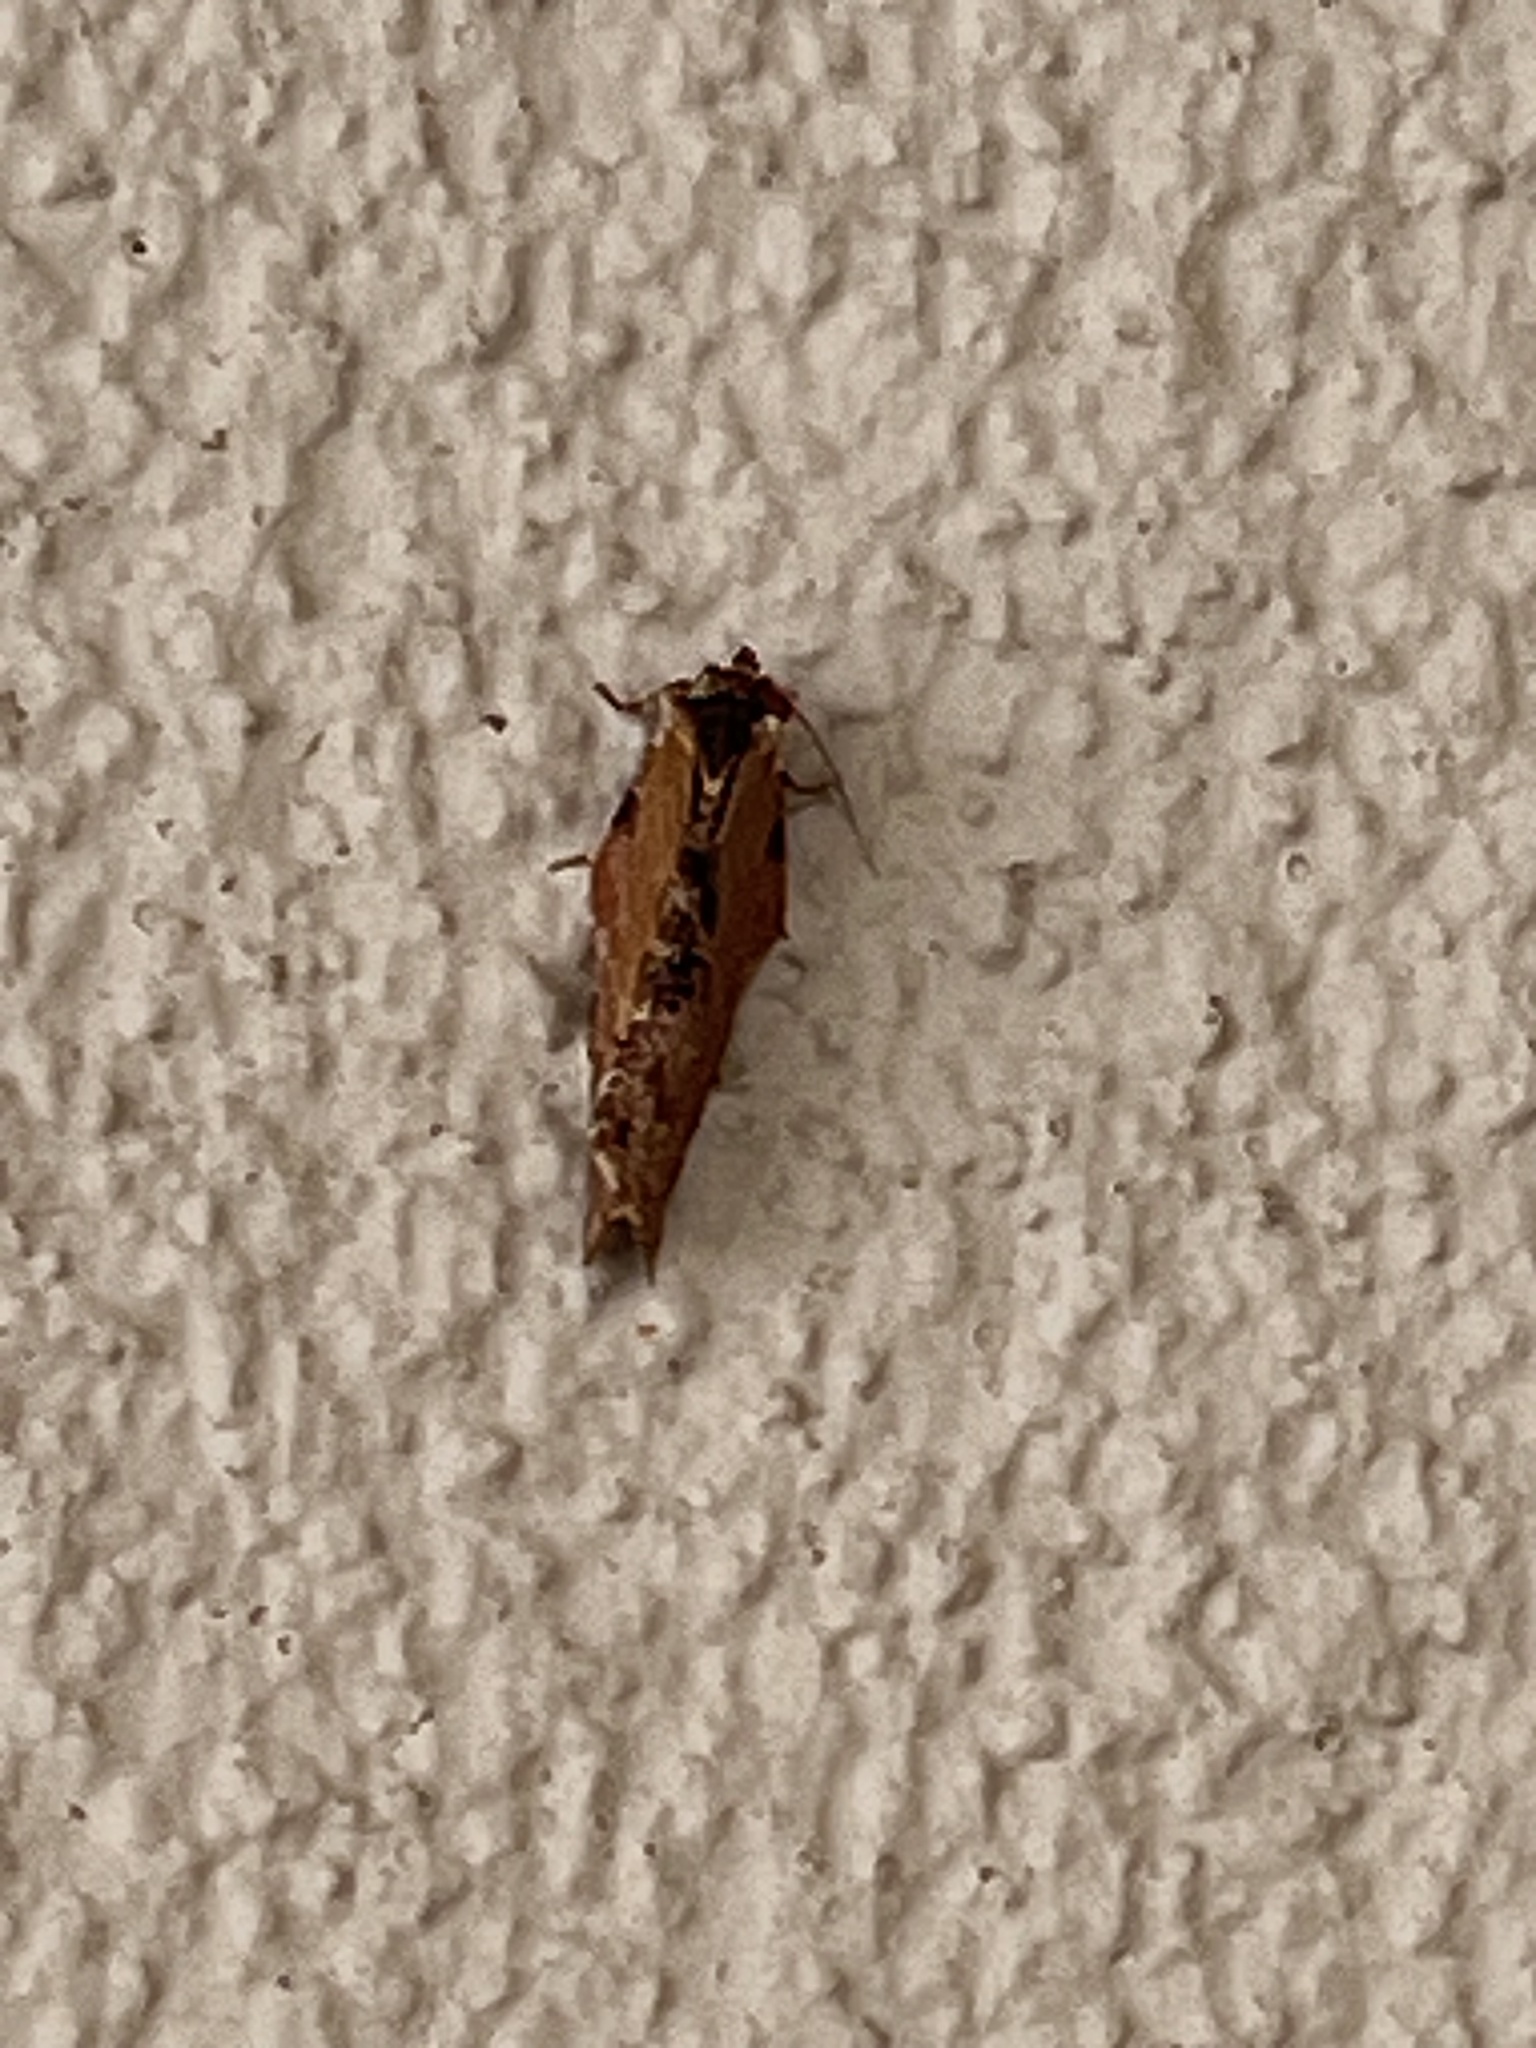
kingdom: Animalia
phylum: Arthropoda
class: Insecta
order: Lepidoptera
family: Tortricidae
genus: Epalxiphora
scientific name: Epalxiphora axenana
